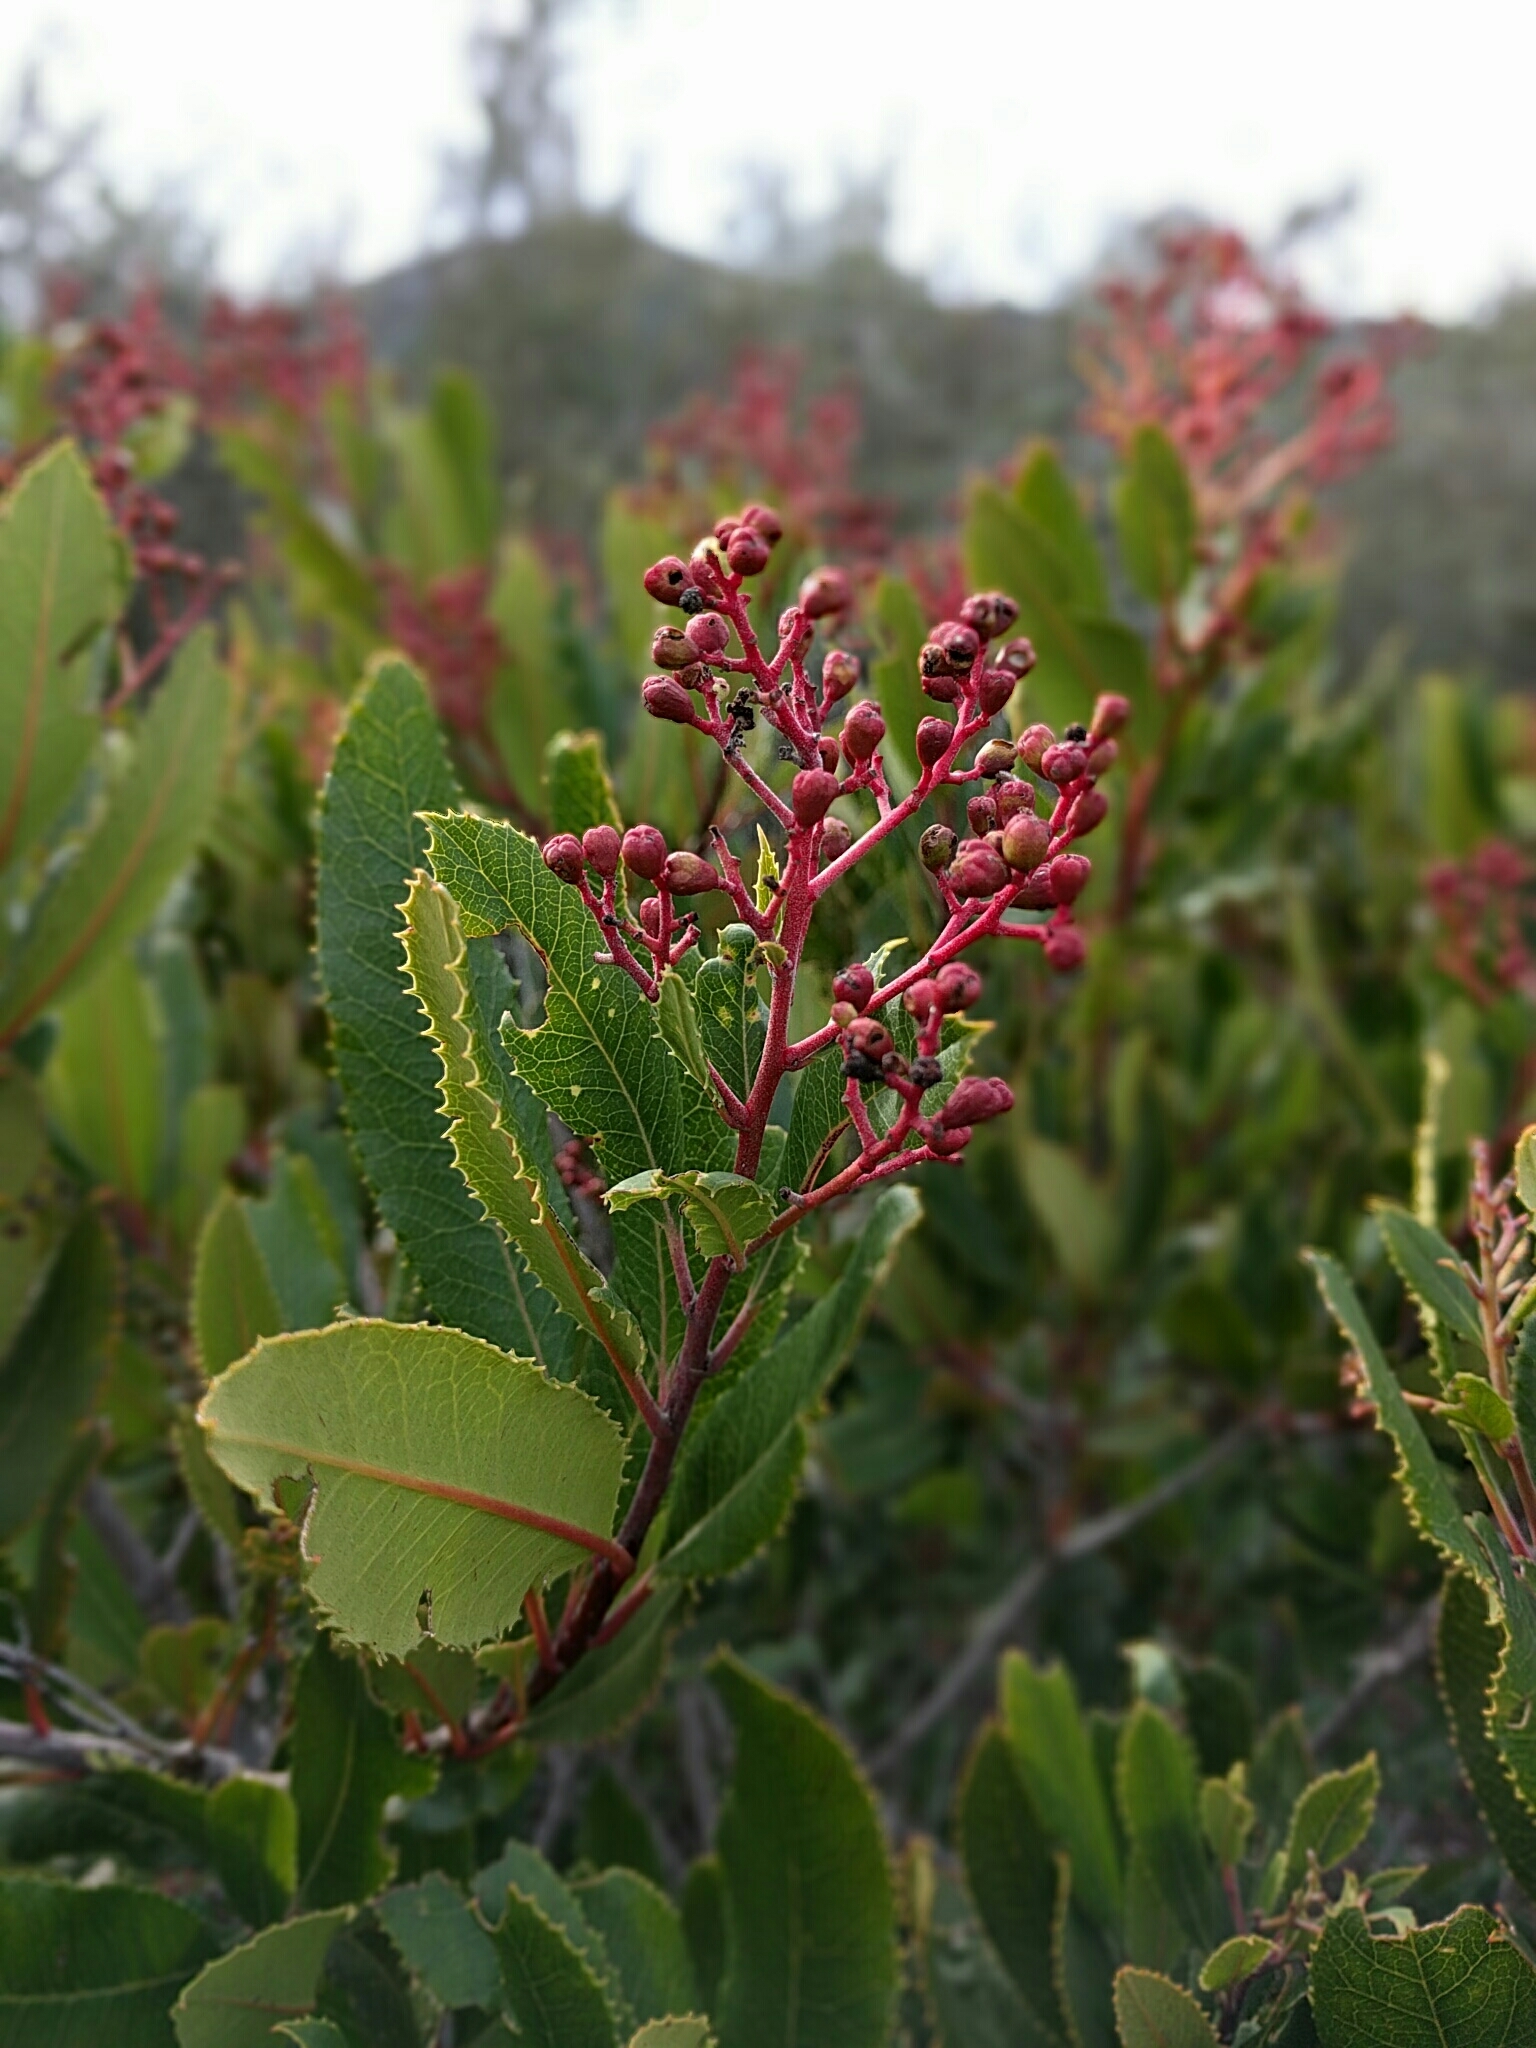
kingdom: Plantae
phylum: Tracheophyta
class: Magnoliopsida
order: Rosales
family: Rosaceae
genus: Heteromeles
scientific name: Heteromeles arbutifolia
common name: California-holly
